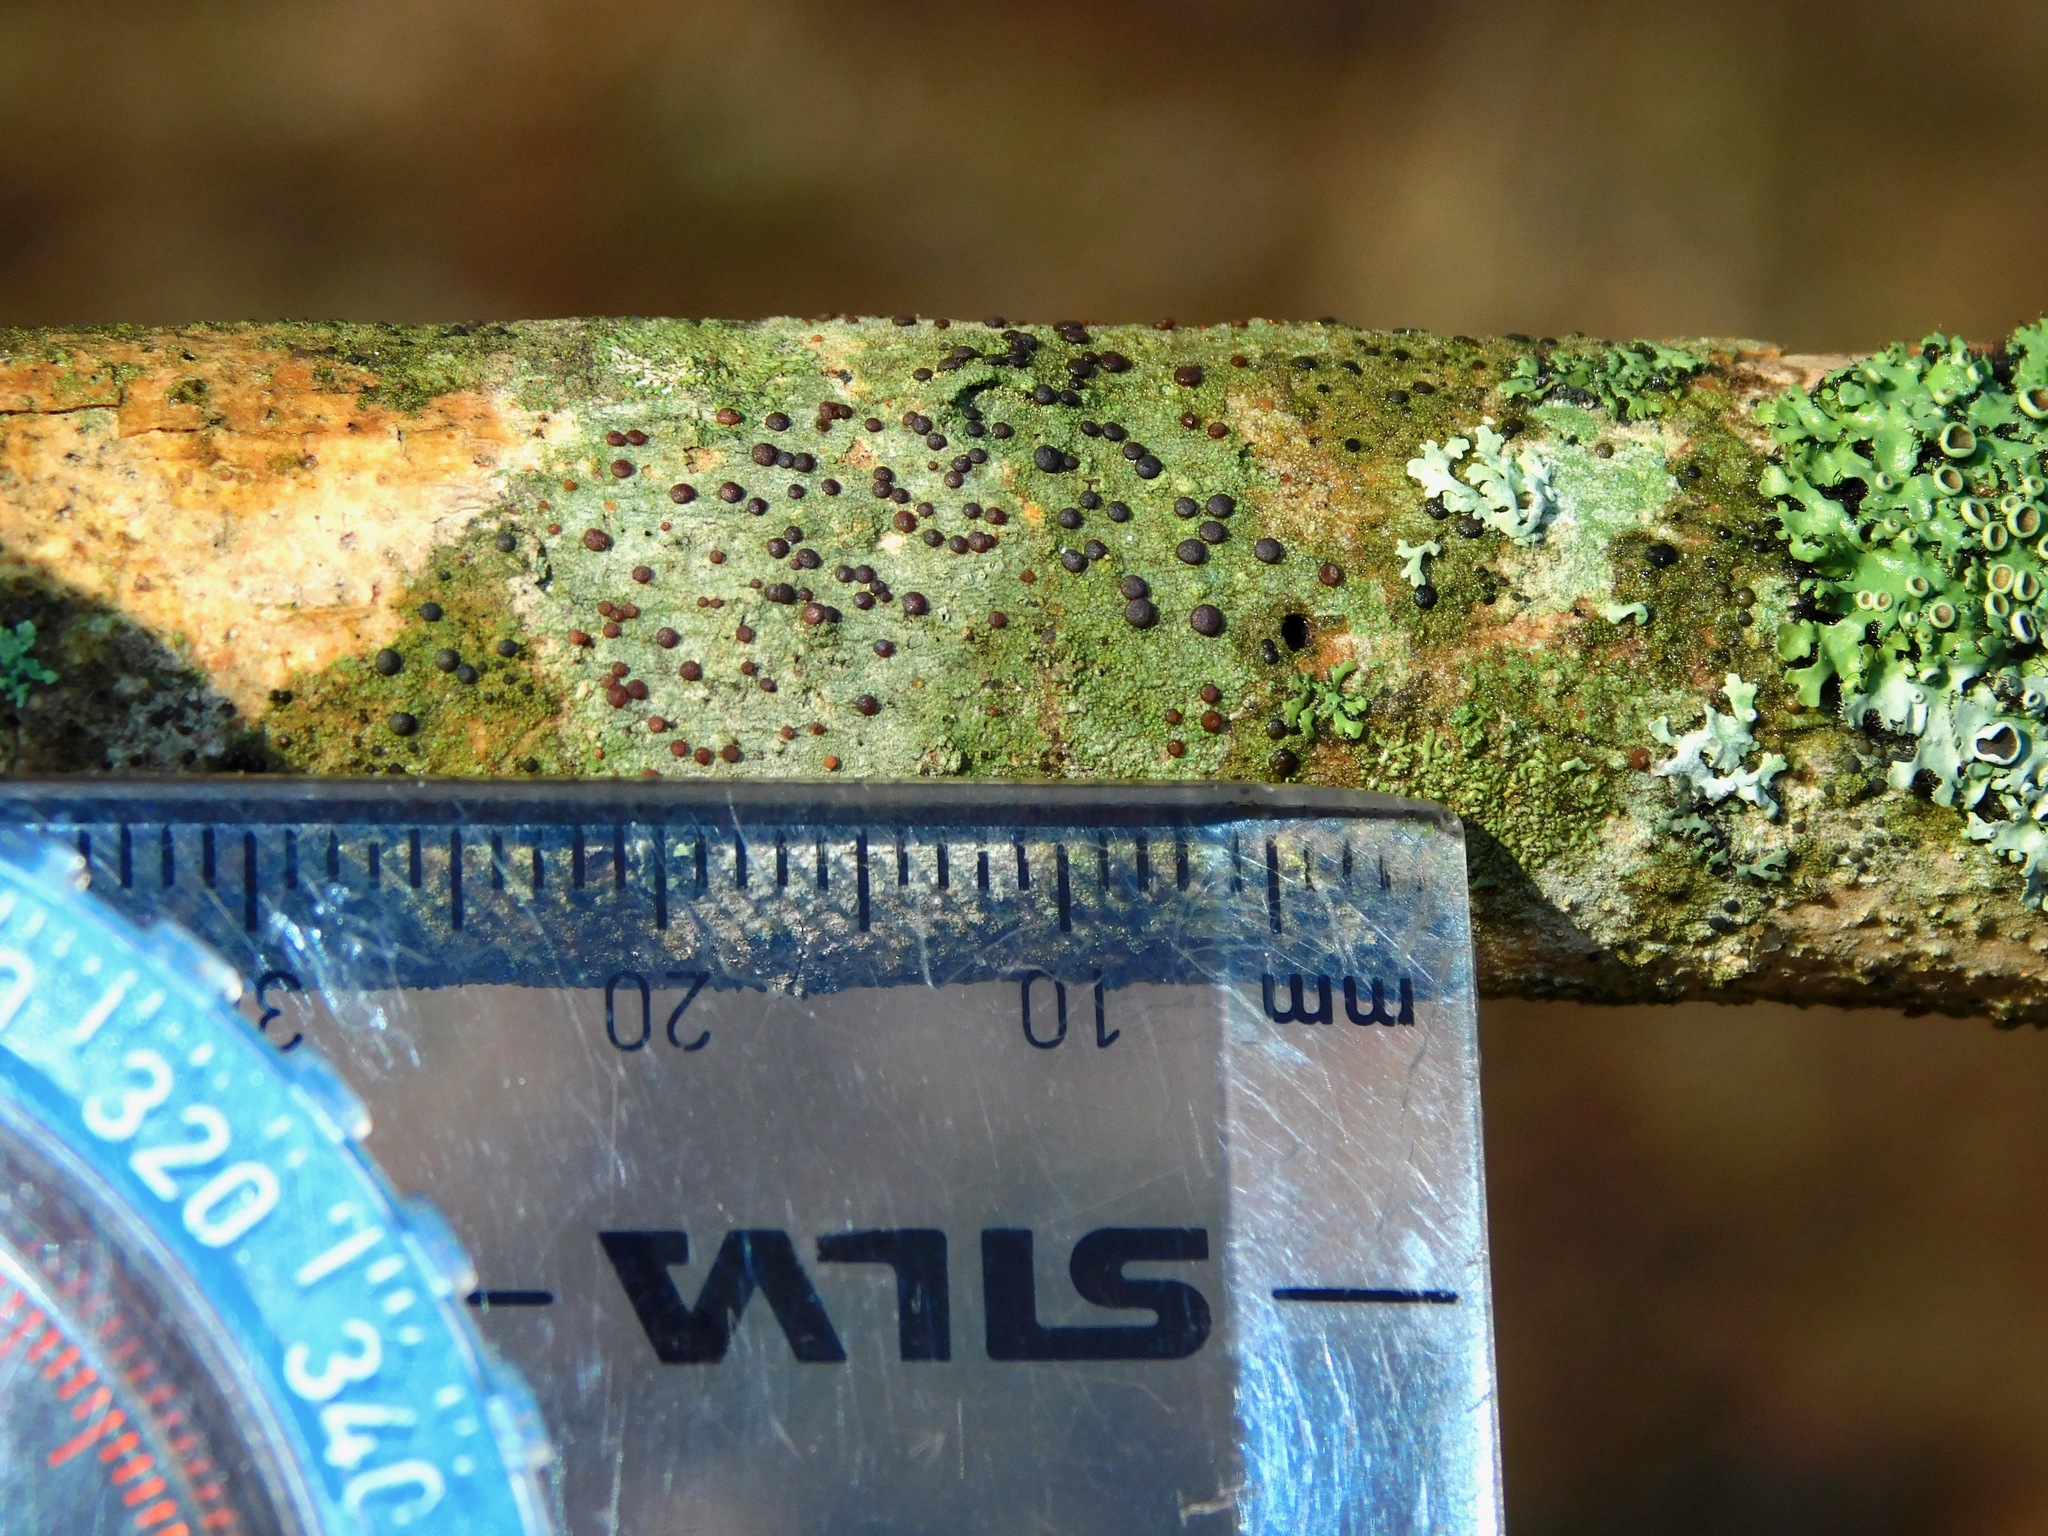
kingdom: Fungi
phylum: Ascomycota
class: Lecanoromycetes
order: Lecanorales
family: Lecanoraceae
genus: Traponora
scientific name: Traponora varians
